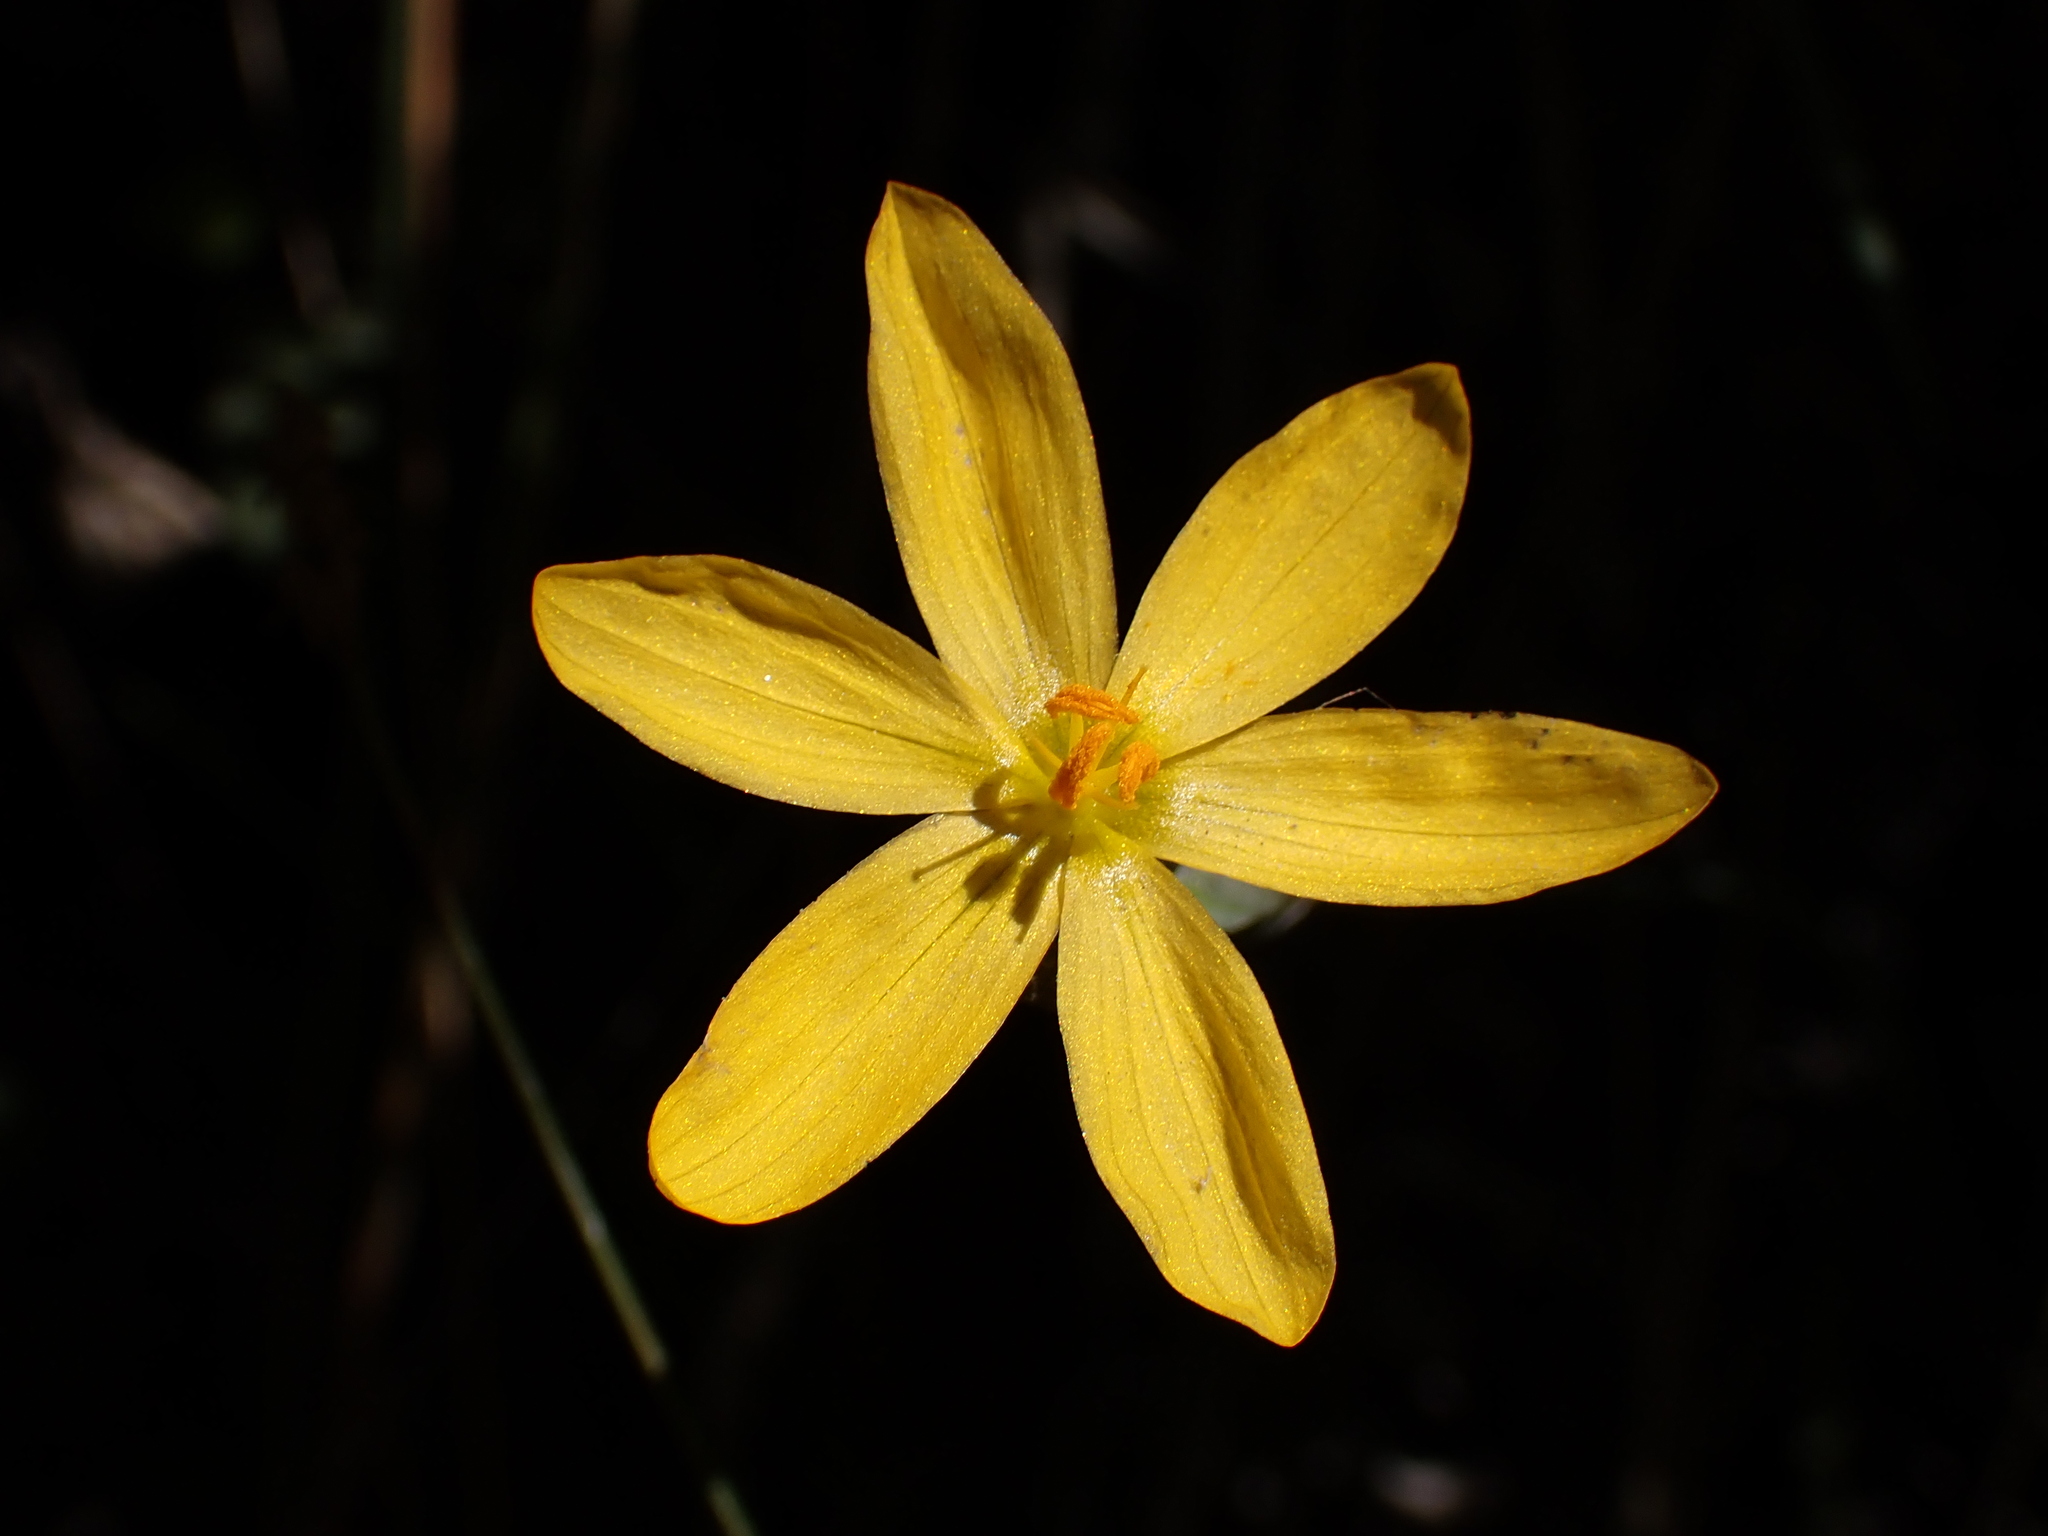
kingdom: Plantae
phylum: Tracheophyta
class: Liliopsida
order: Asparagales
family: Iridaceae
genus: Sisyrinchium
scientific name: Sisyrinchium californicum
